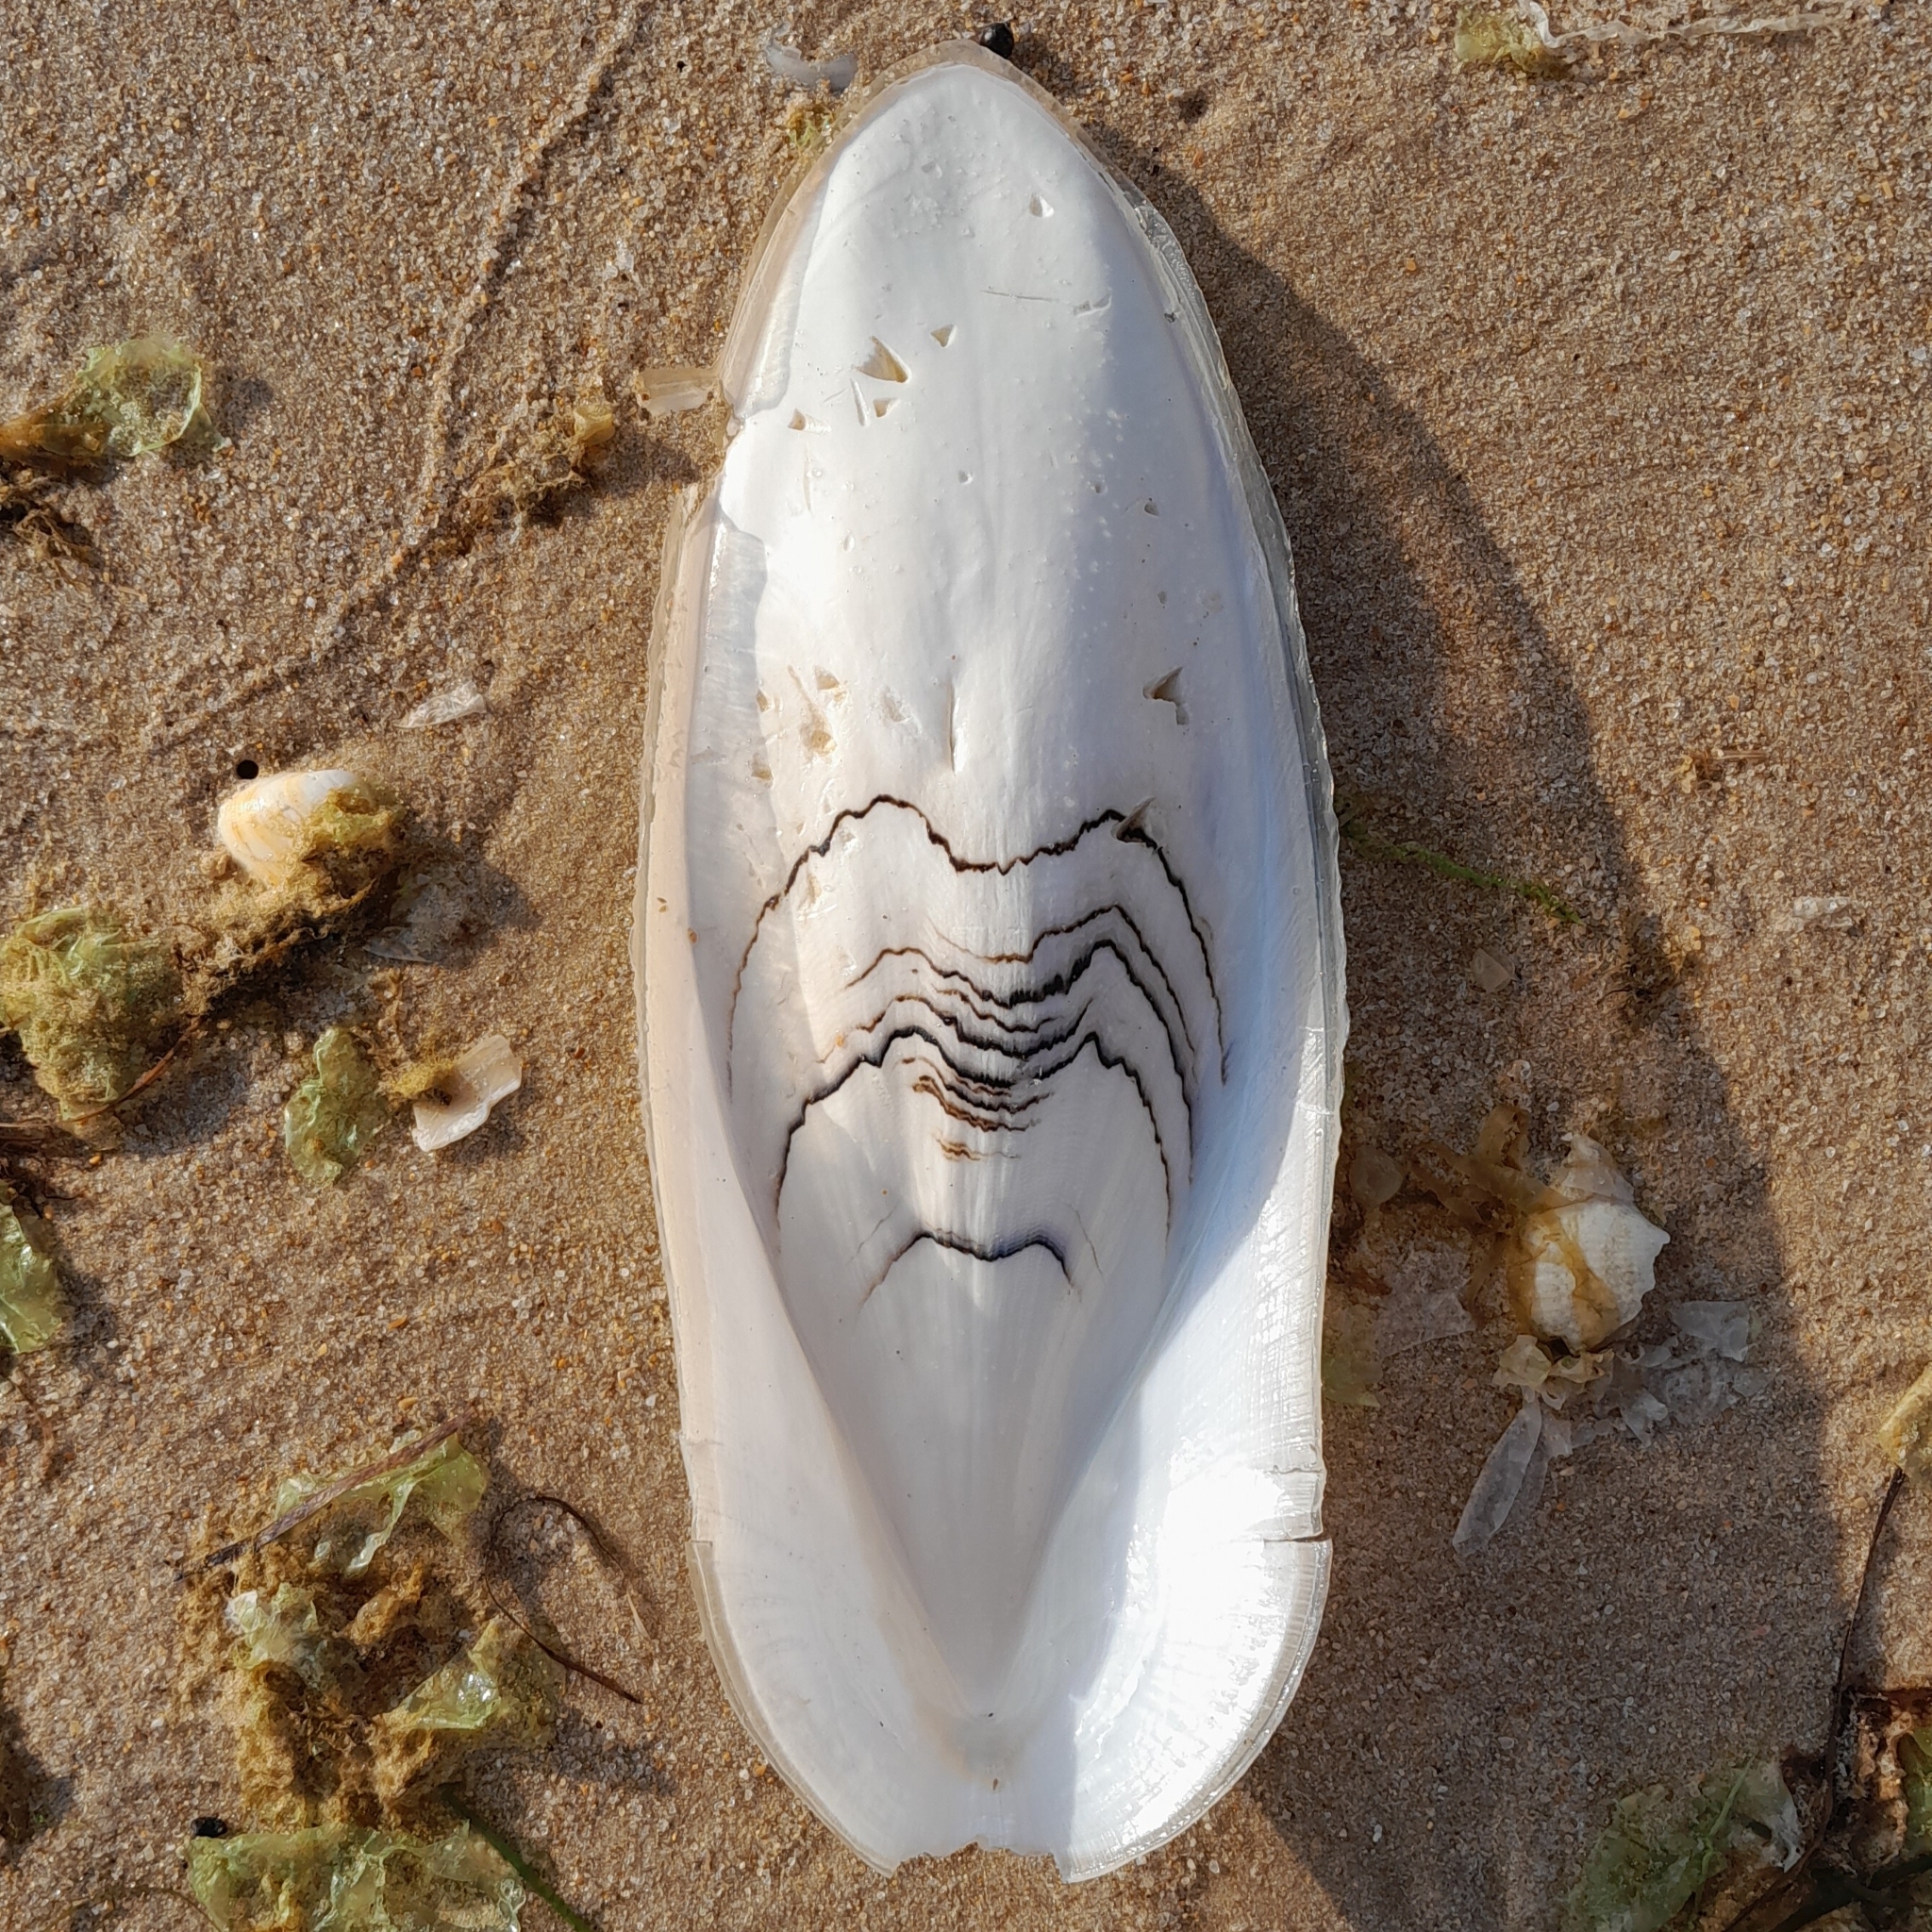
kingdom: Animalia
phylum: Mollusca
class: Cephalopoda
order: Sepiida
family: Sepiidae
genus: Sepia
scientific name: Sepia officinalis
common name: Common cuttlefish
